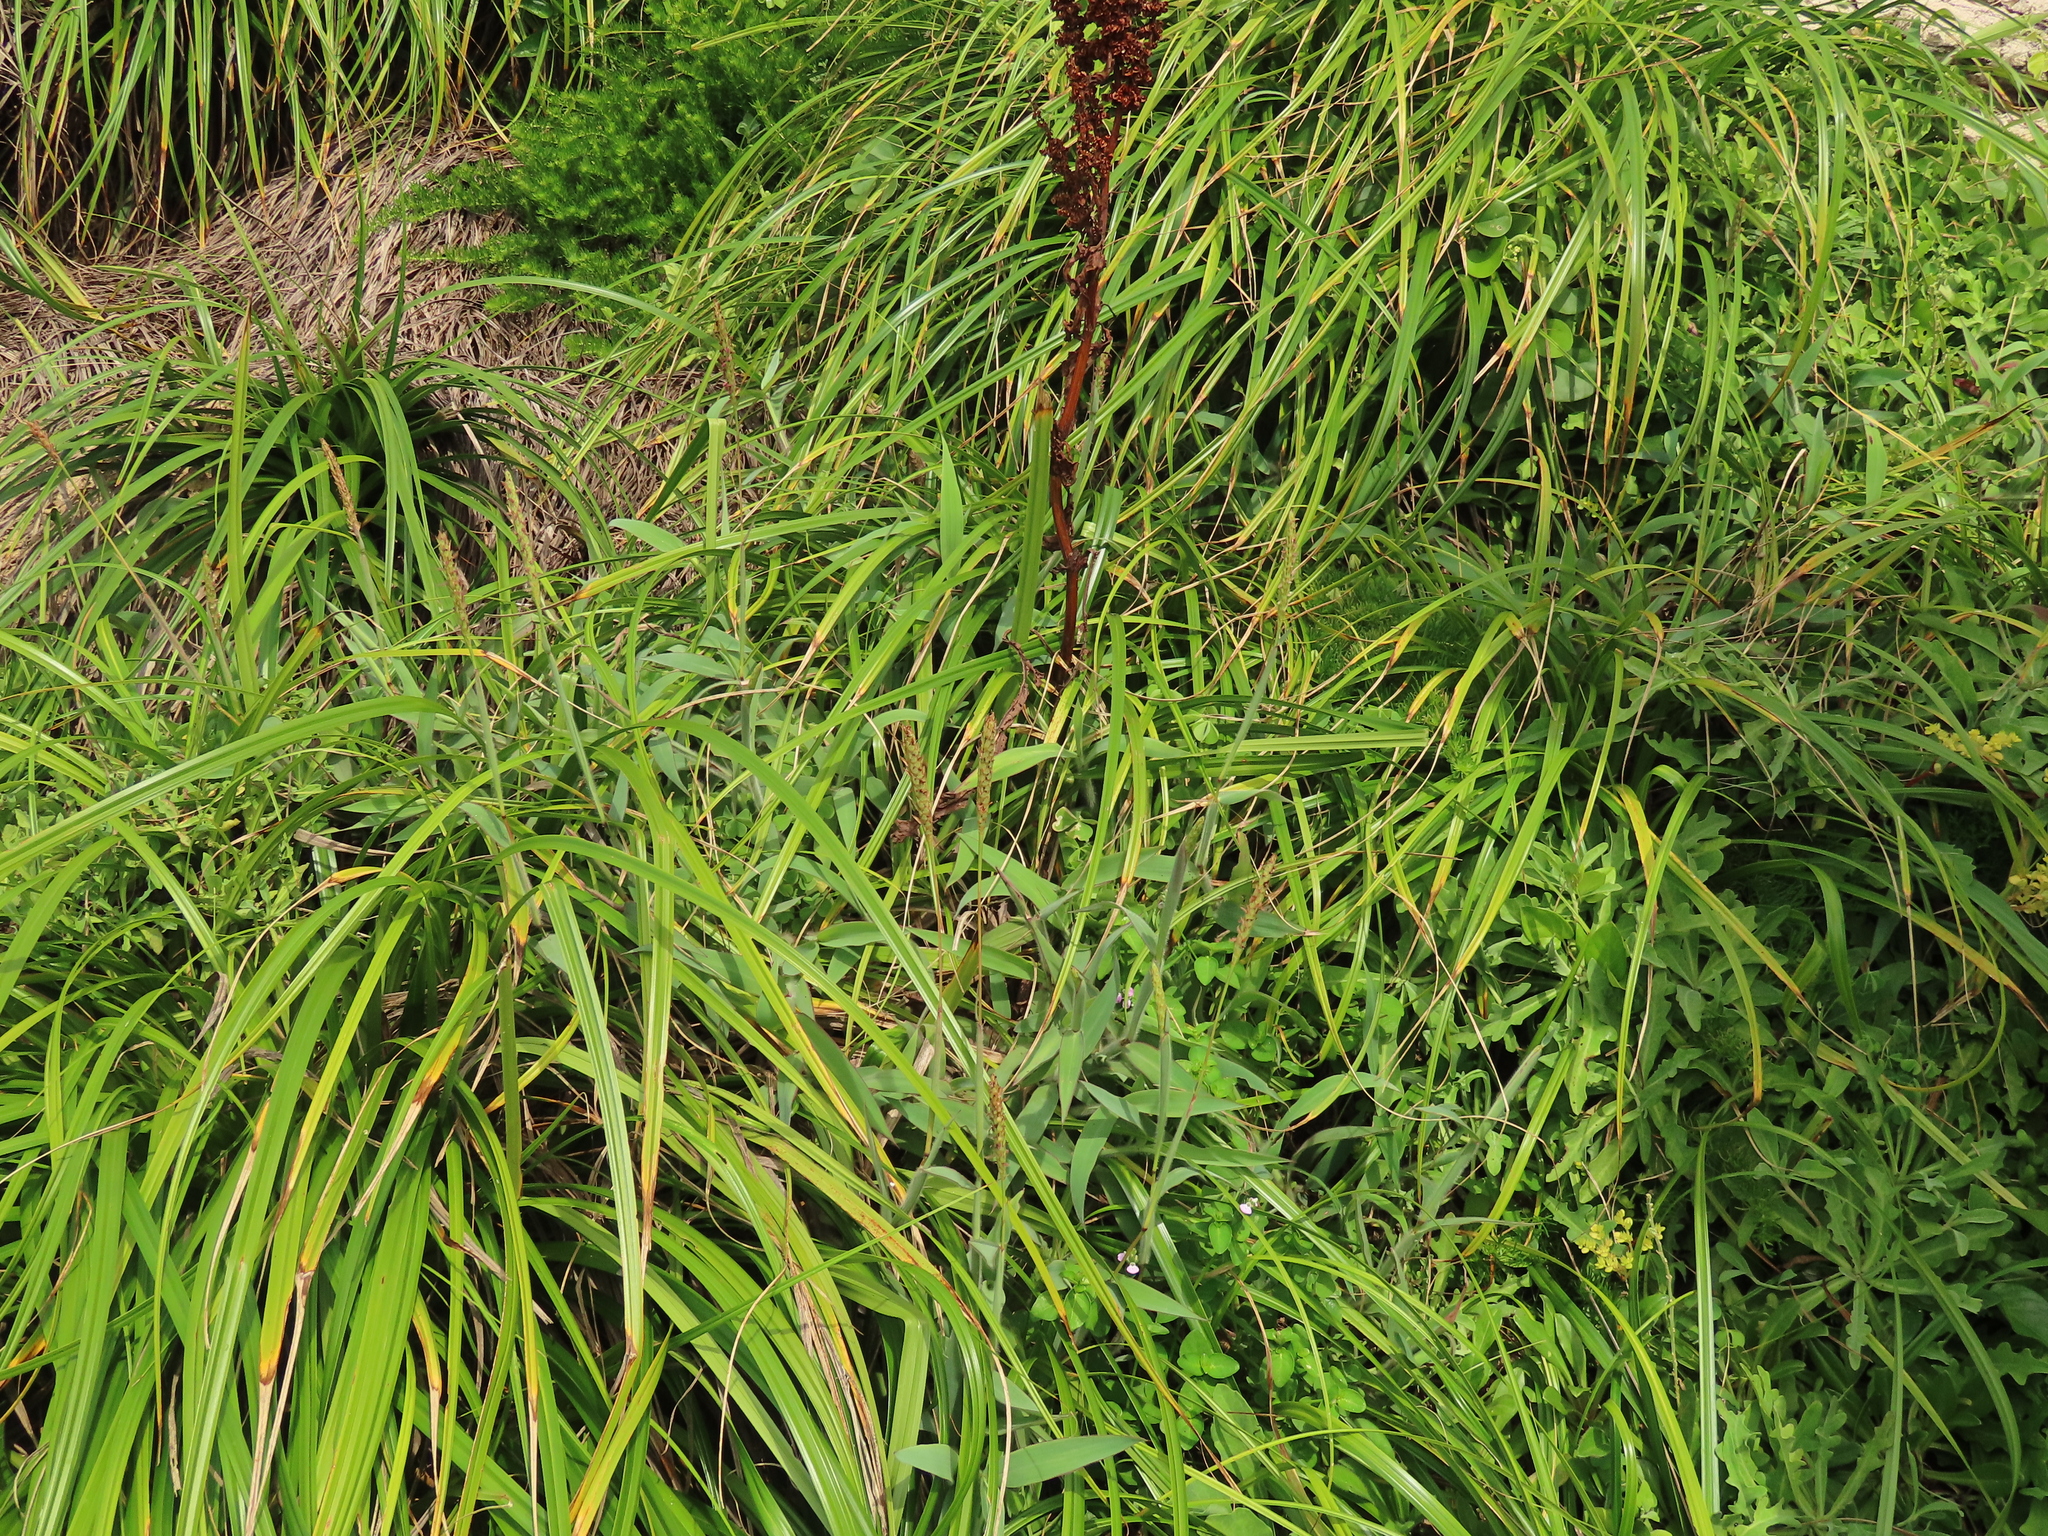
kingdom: Plantae
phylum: Tracheophyta
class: Liliopsida
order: Poales
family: Poaceae
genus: Ischaemum
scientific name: Ischaemum aristatum
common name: Toco grass
